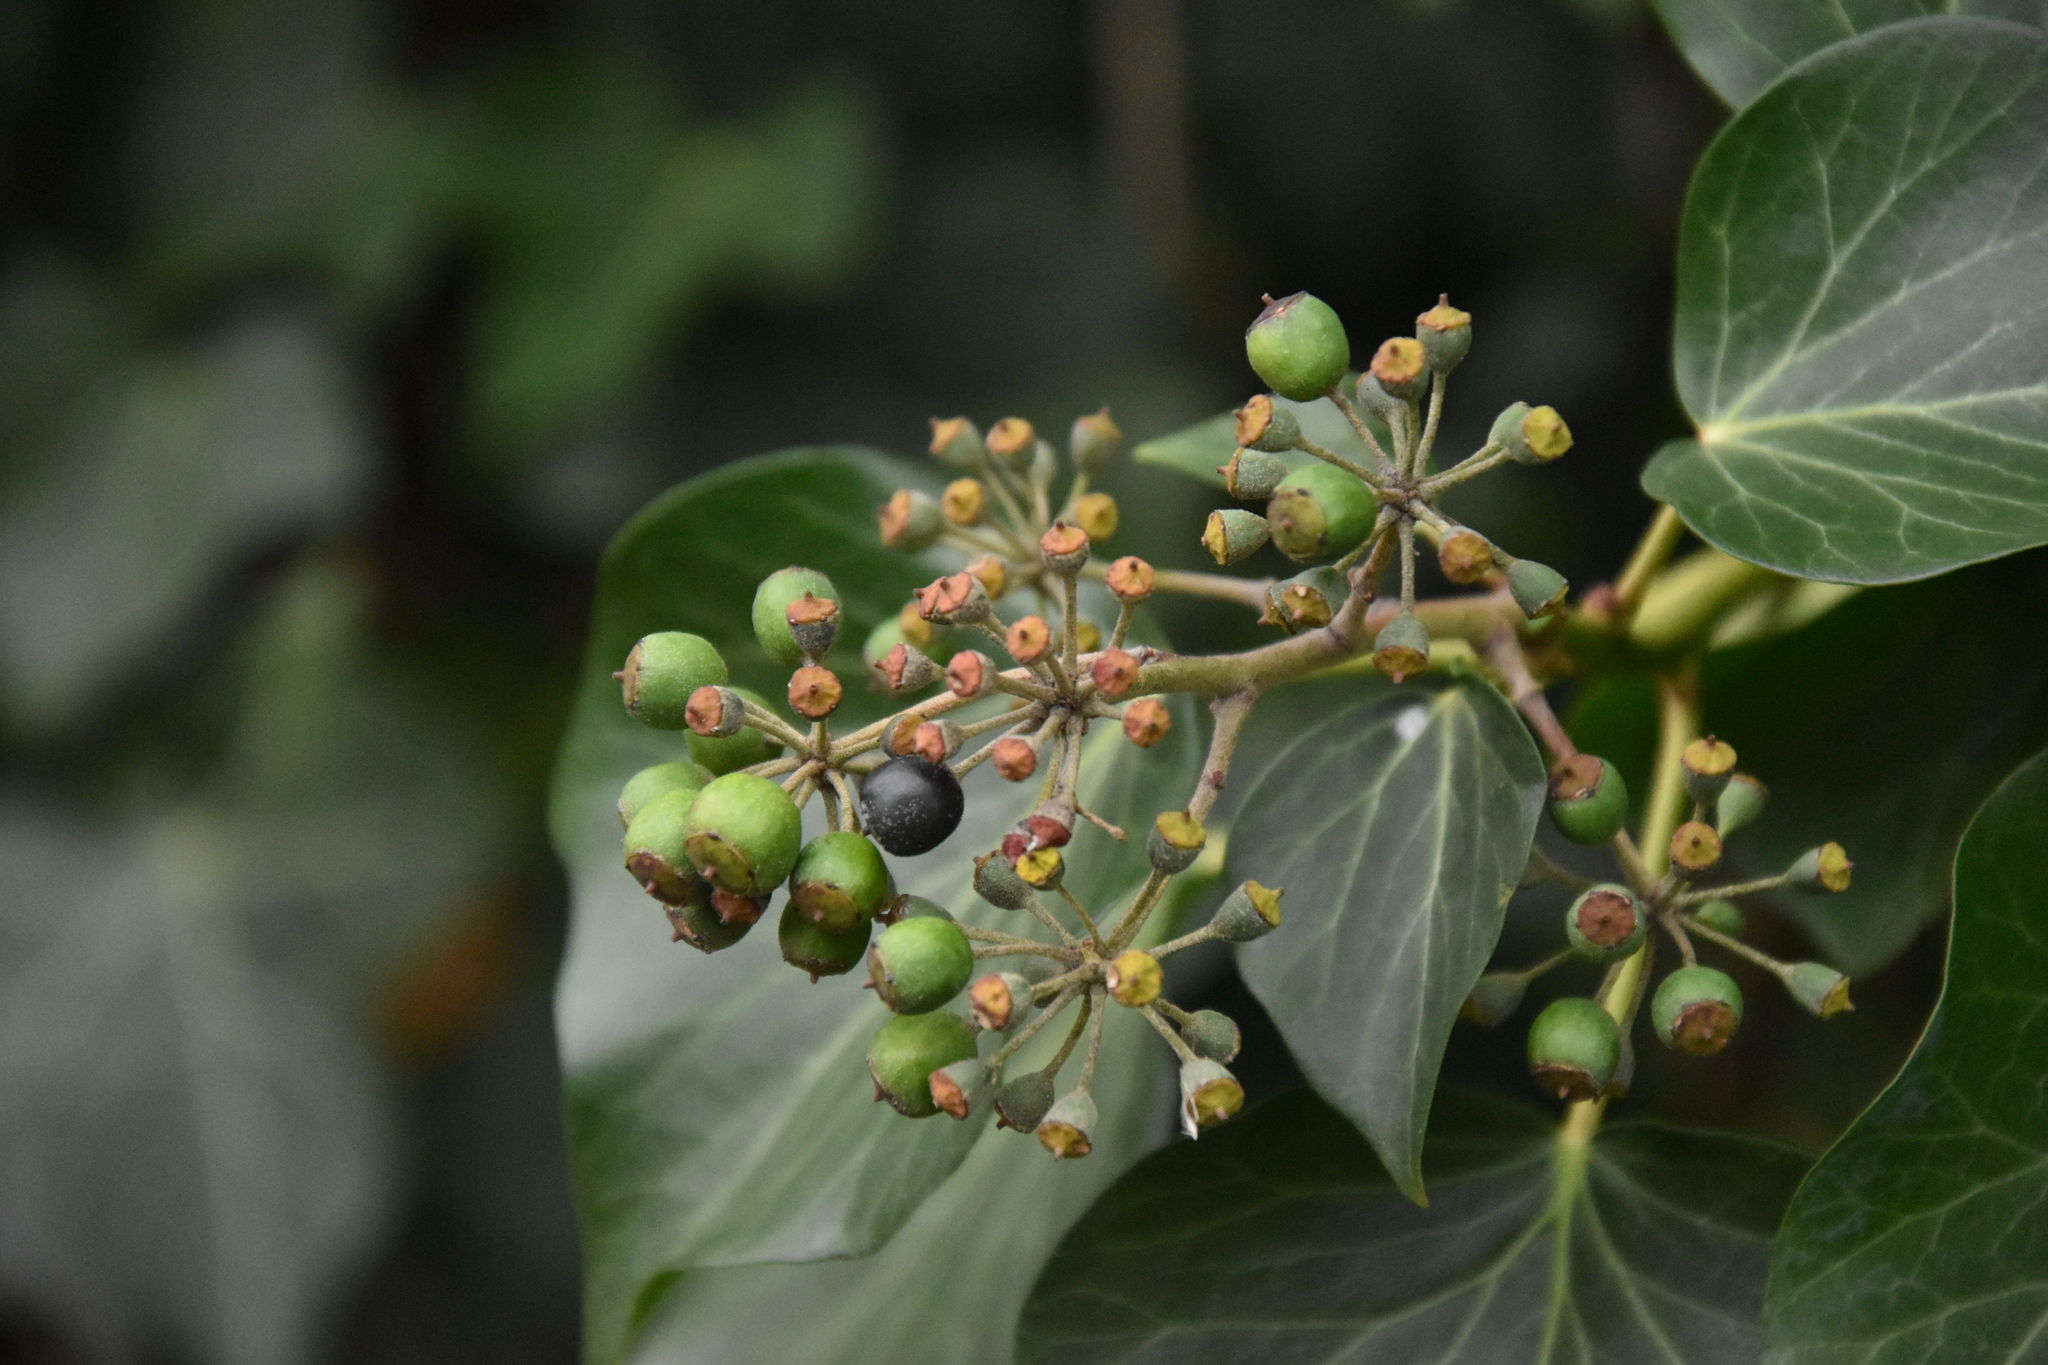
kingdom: Plantae
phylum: Tracheophyta
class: Magnoliopsida
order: Apiales
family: Araliaceae
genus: Hedera
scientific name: Hedera helix
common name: Ivy
